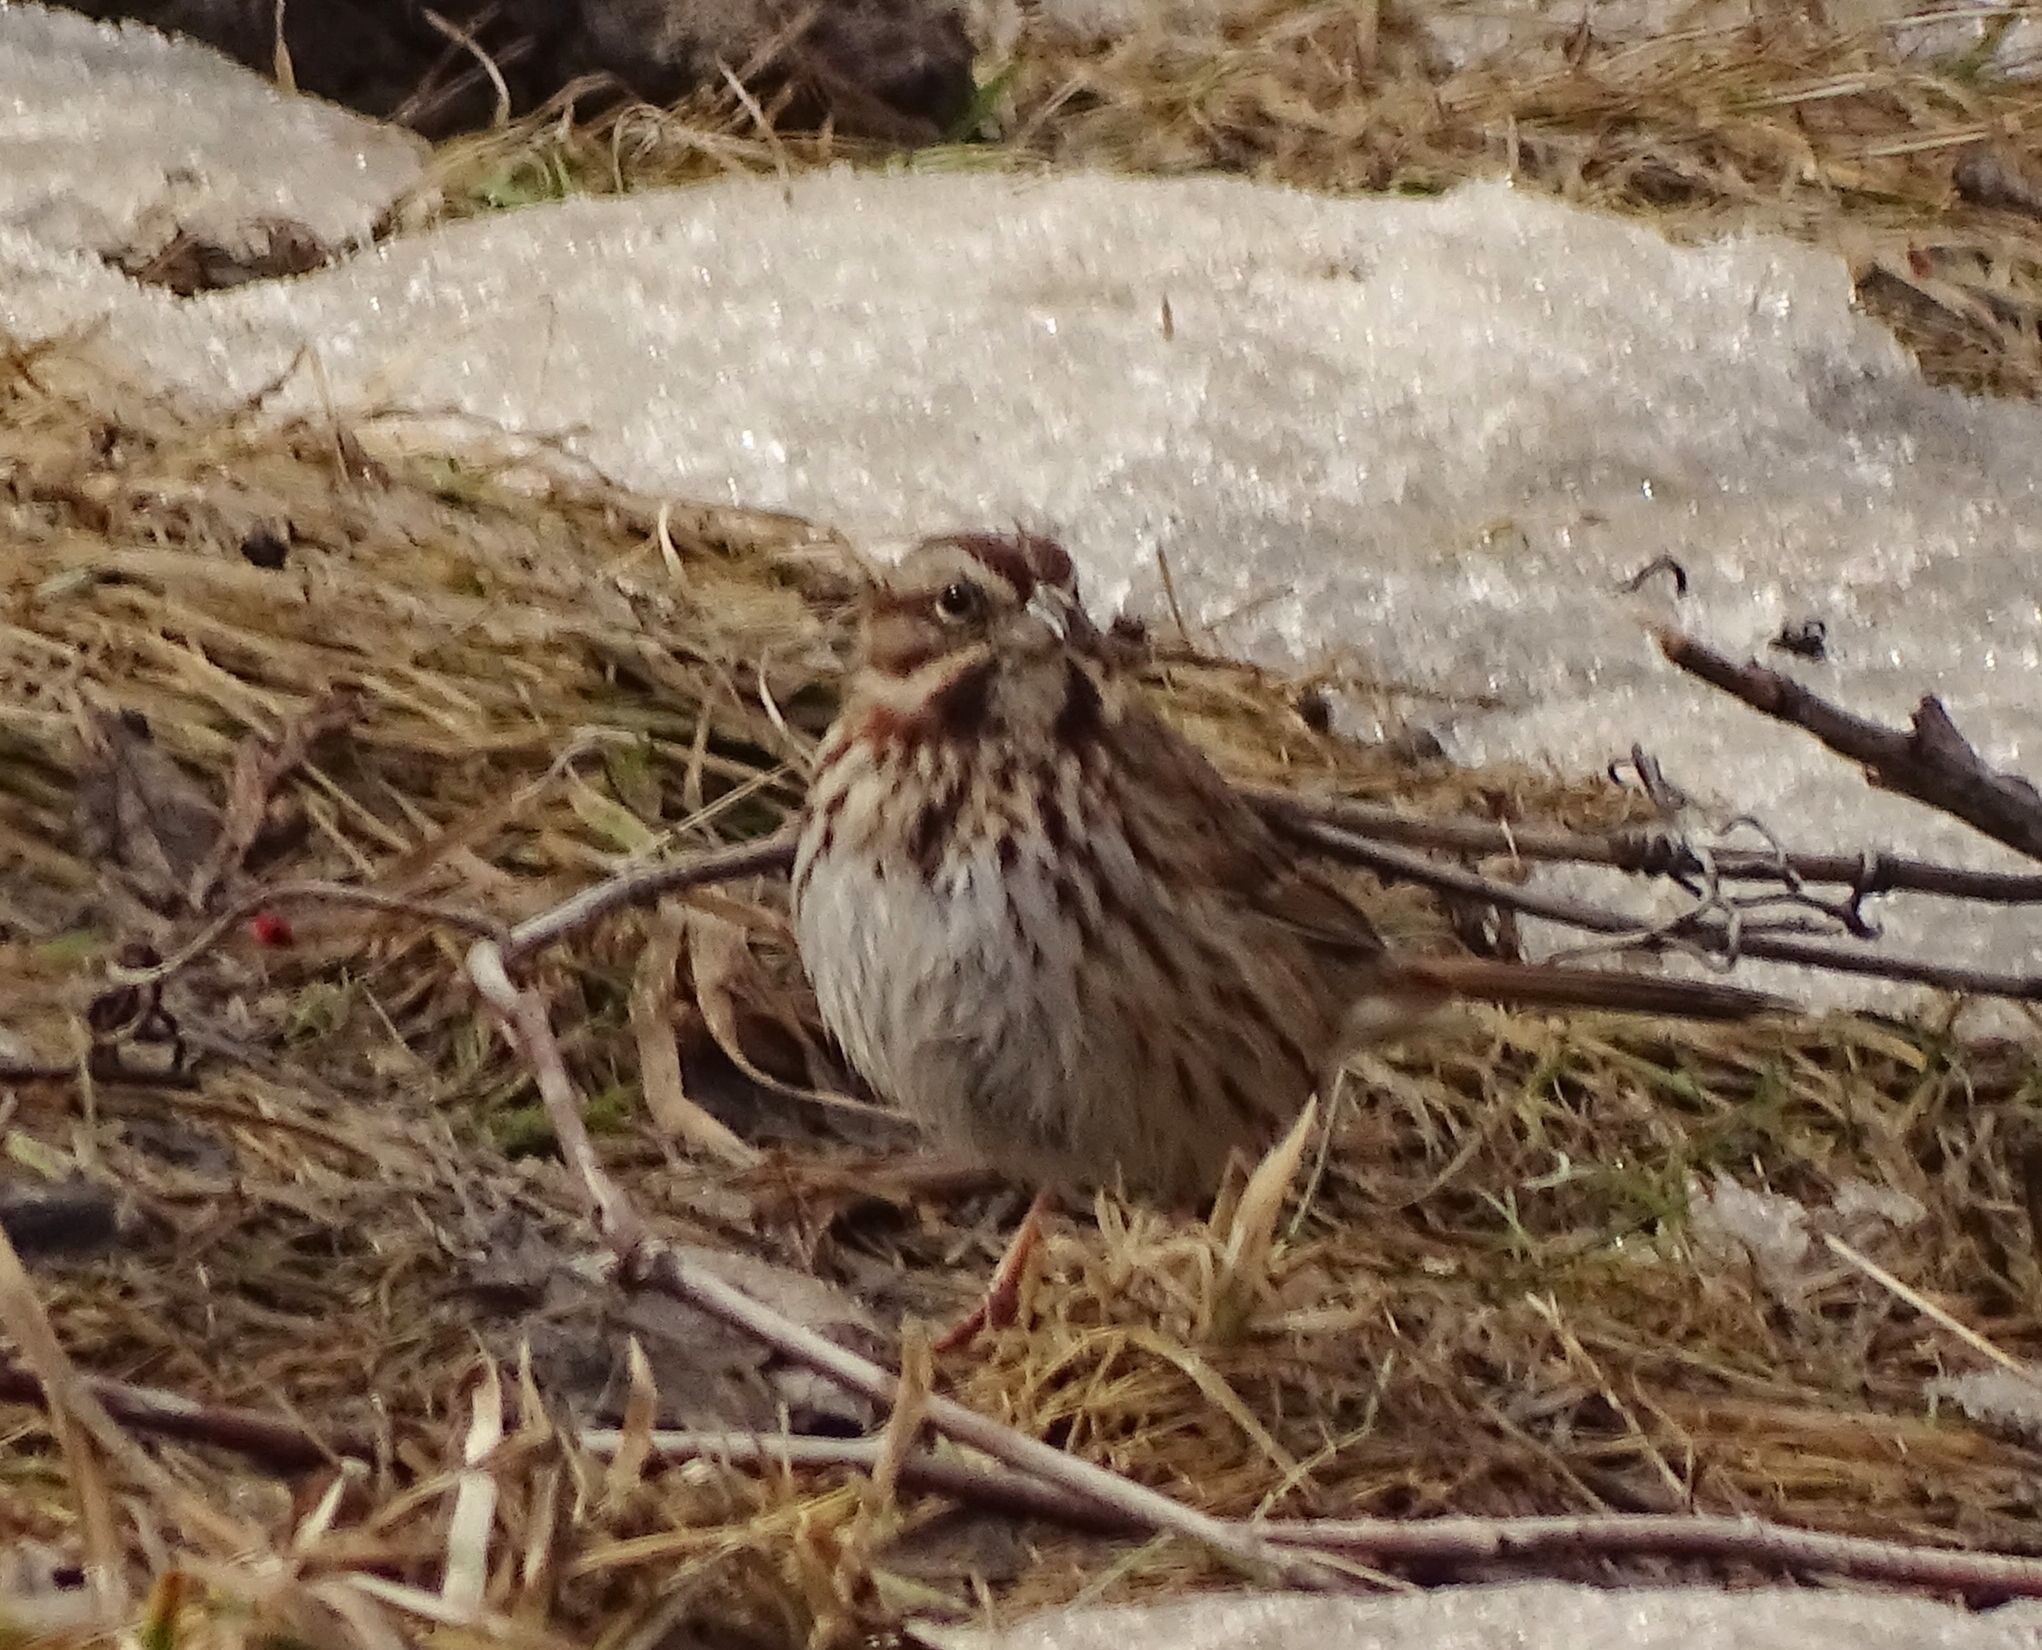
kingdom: Animalia
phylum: Chordata
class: Aves
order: Passeriformes
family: Passerellidae
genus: Melospiza
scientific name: Melospiza melodia
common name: Song sparrow
